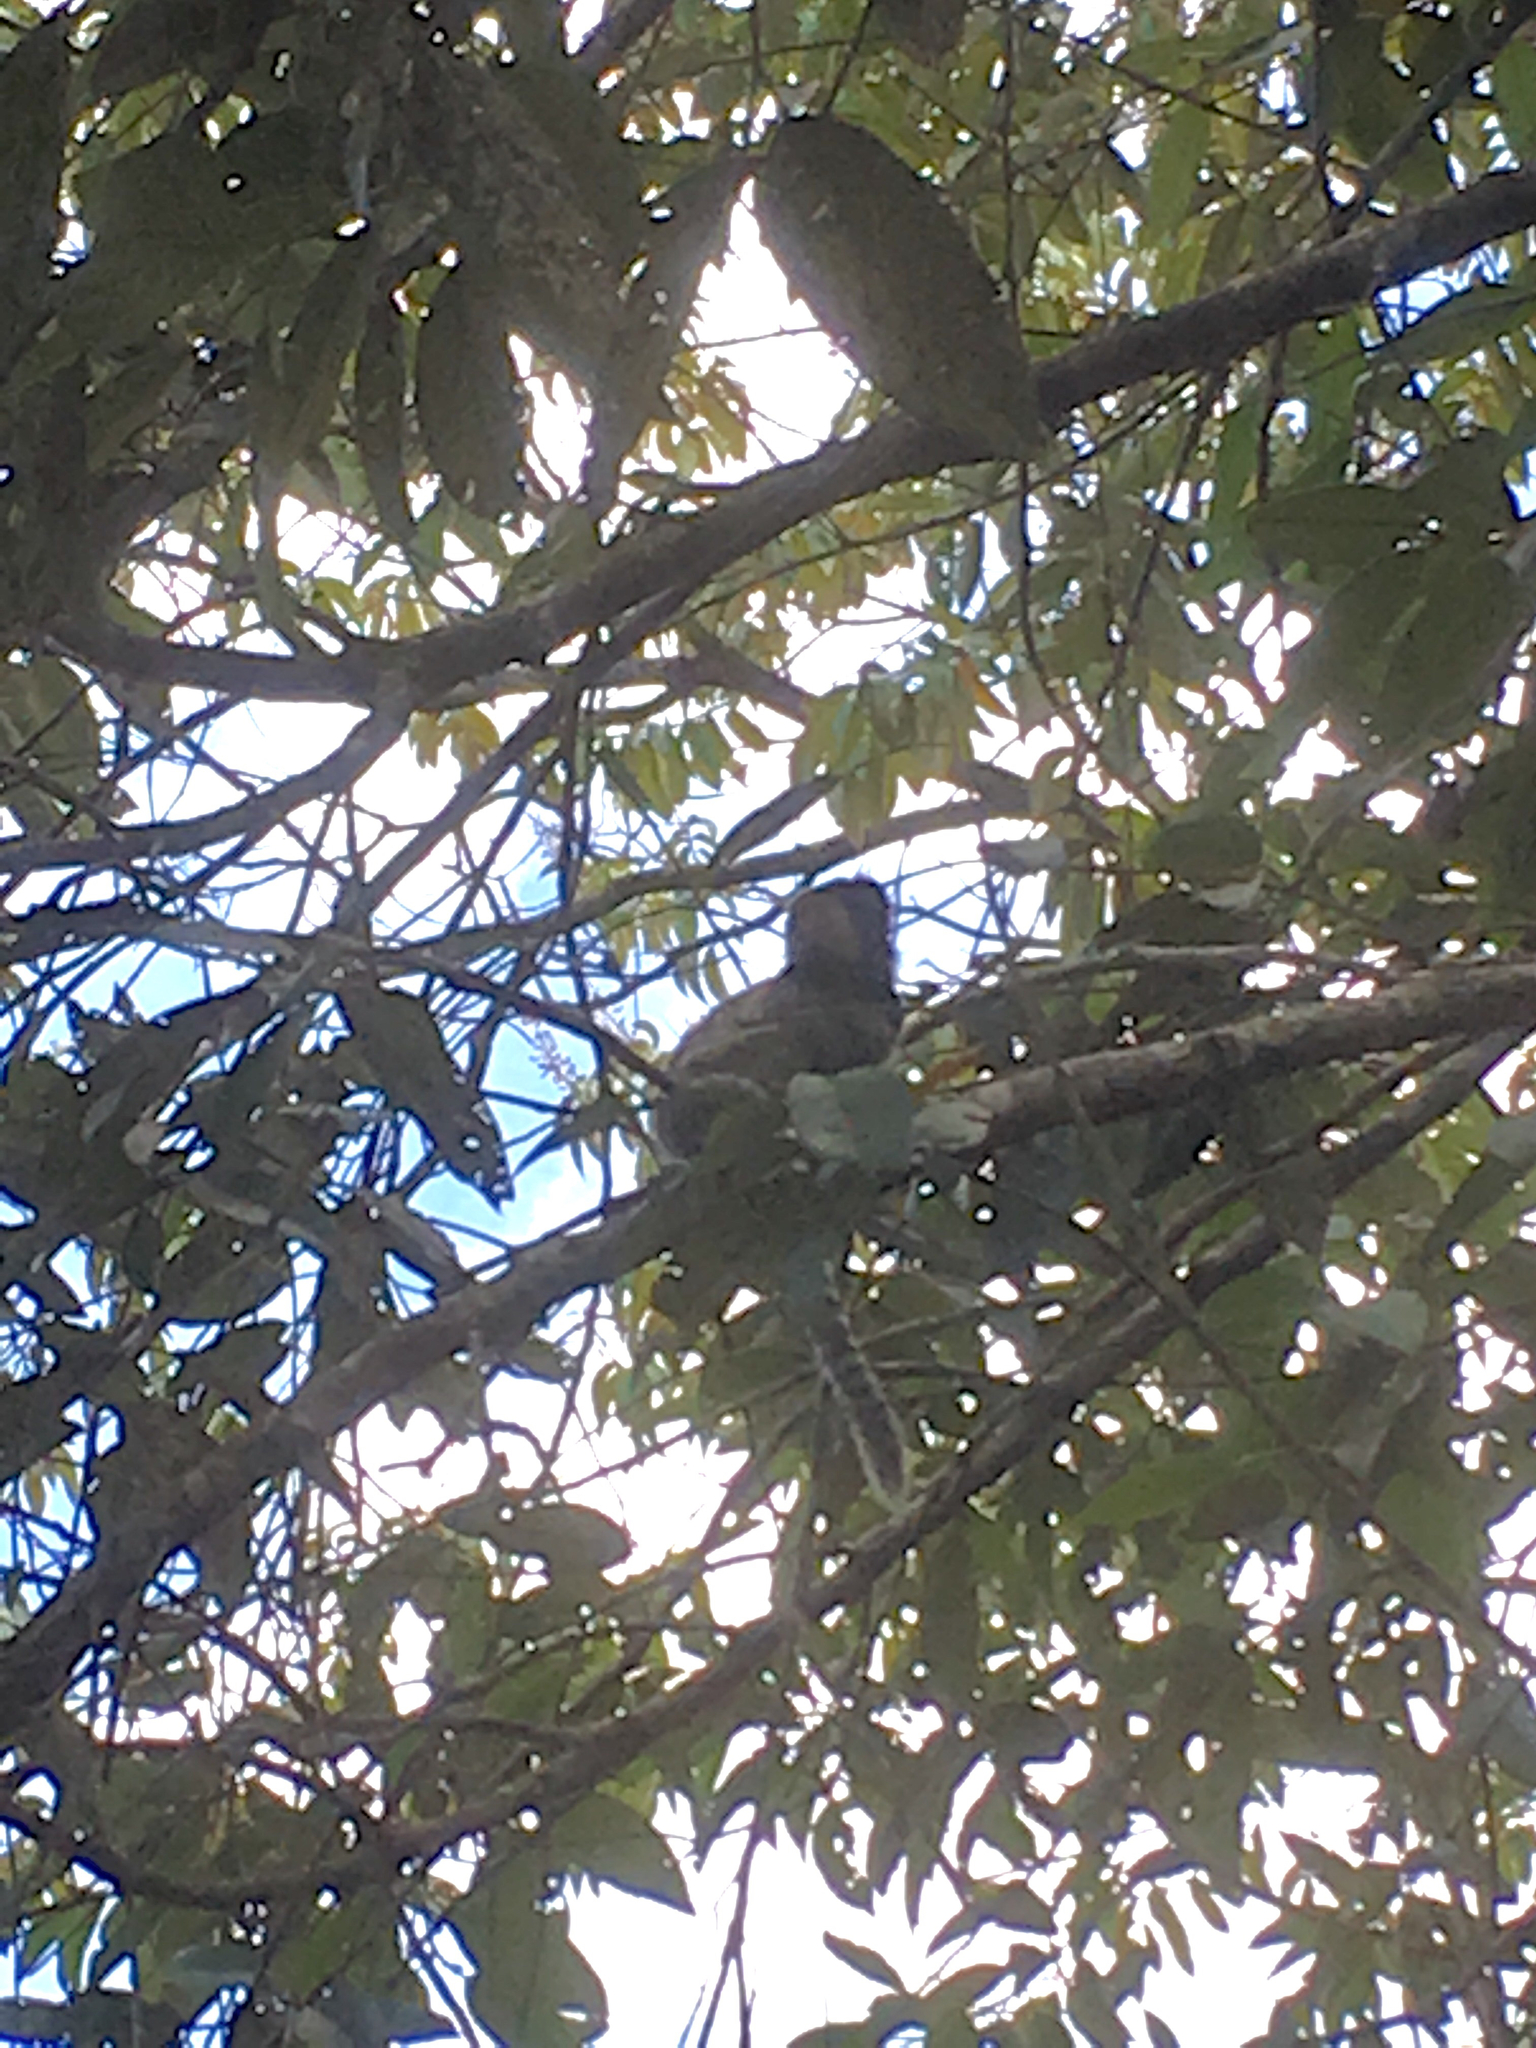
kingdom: Animalia
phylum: Chordata
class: Mammalia
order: Primates
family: Callitrichidae
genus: Callithrix
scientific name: Callithrix penicillata
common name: Black-tufted marmoset
